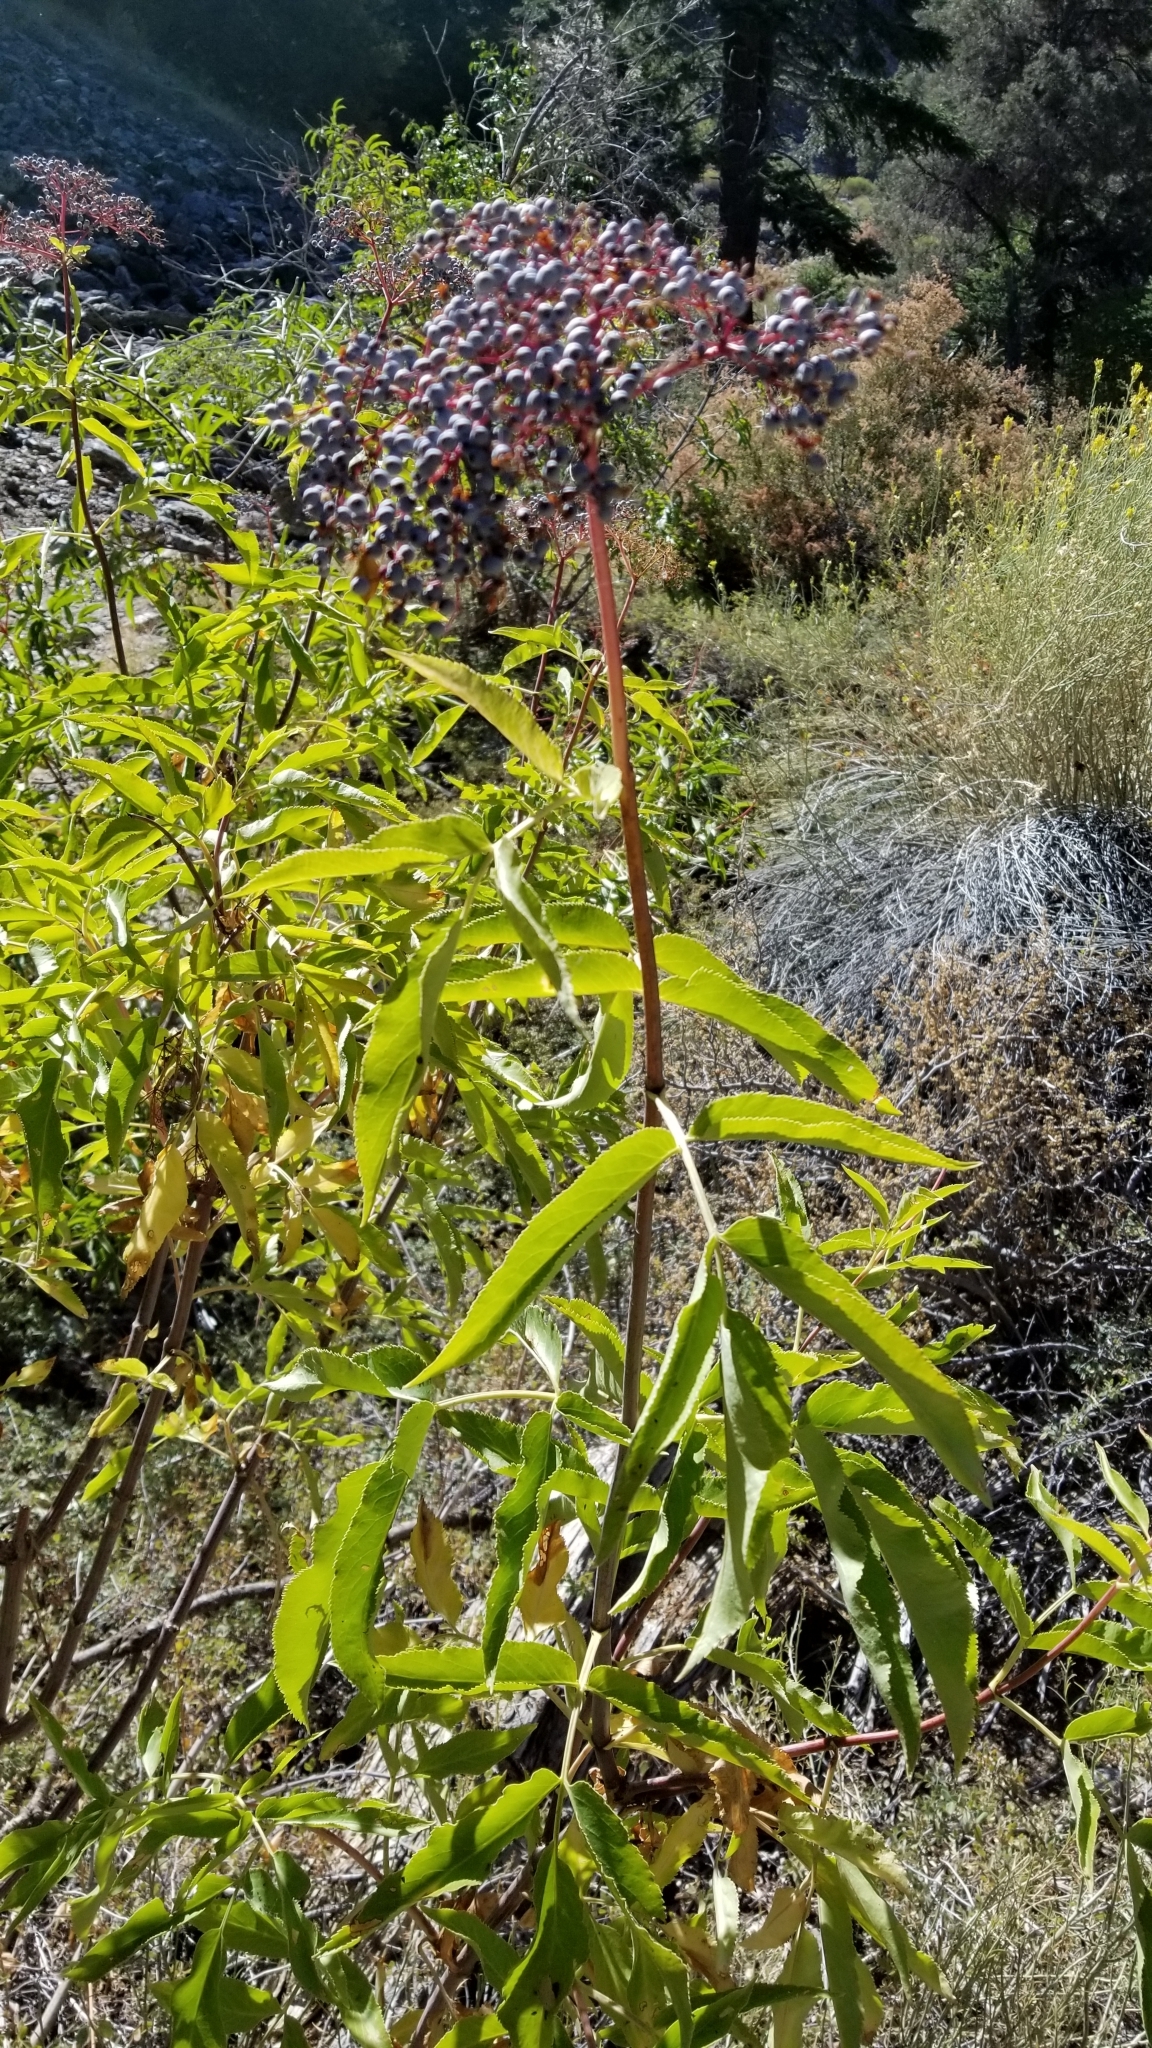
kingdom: Plantae
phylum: Tracheophyta
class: Magnoliopsida
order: Dipsacales
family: Viburnaceae
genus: Sambucus
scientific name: Sambucus cerulea
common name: Blue elder
